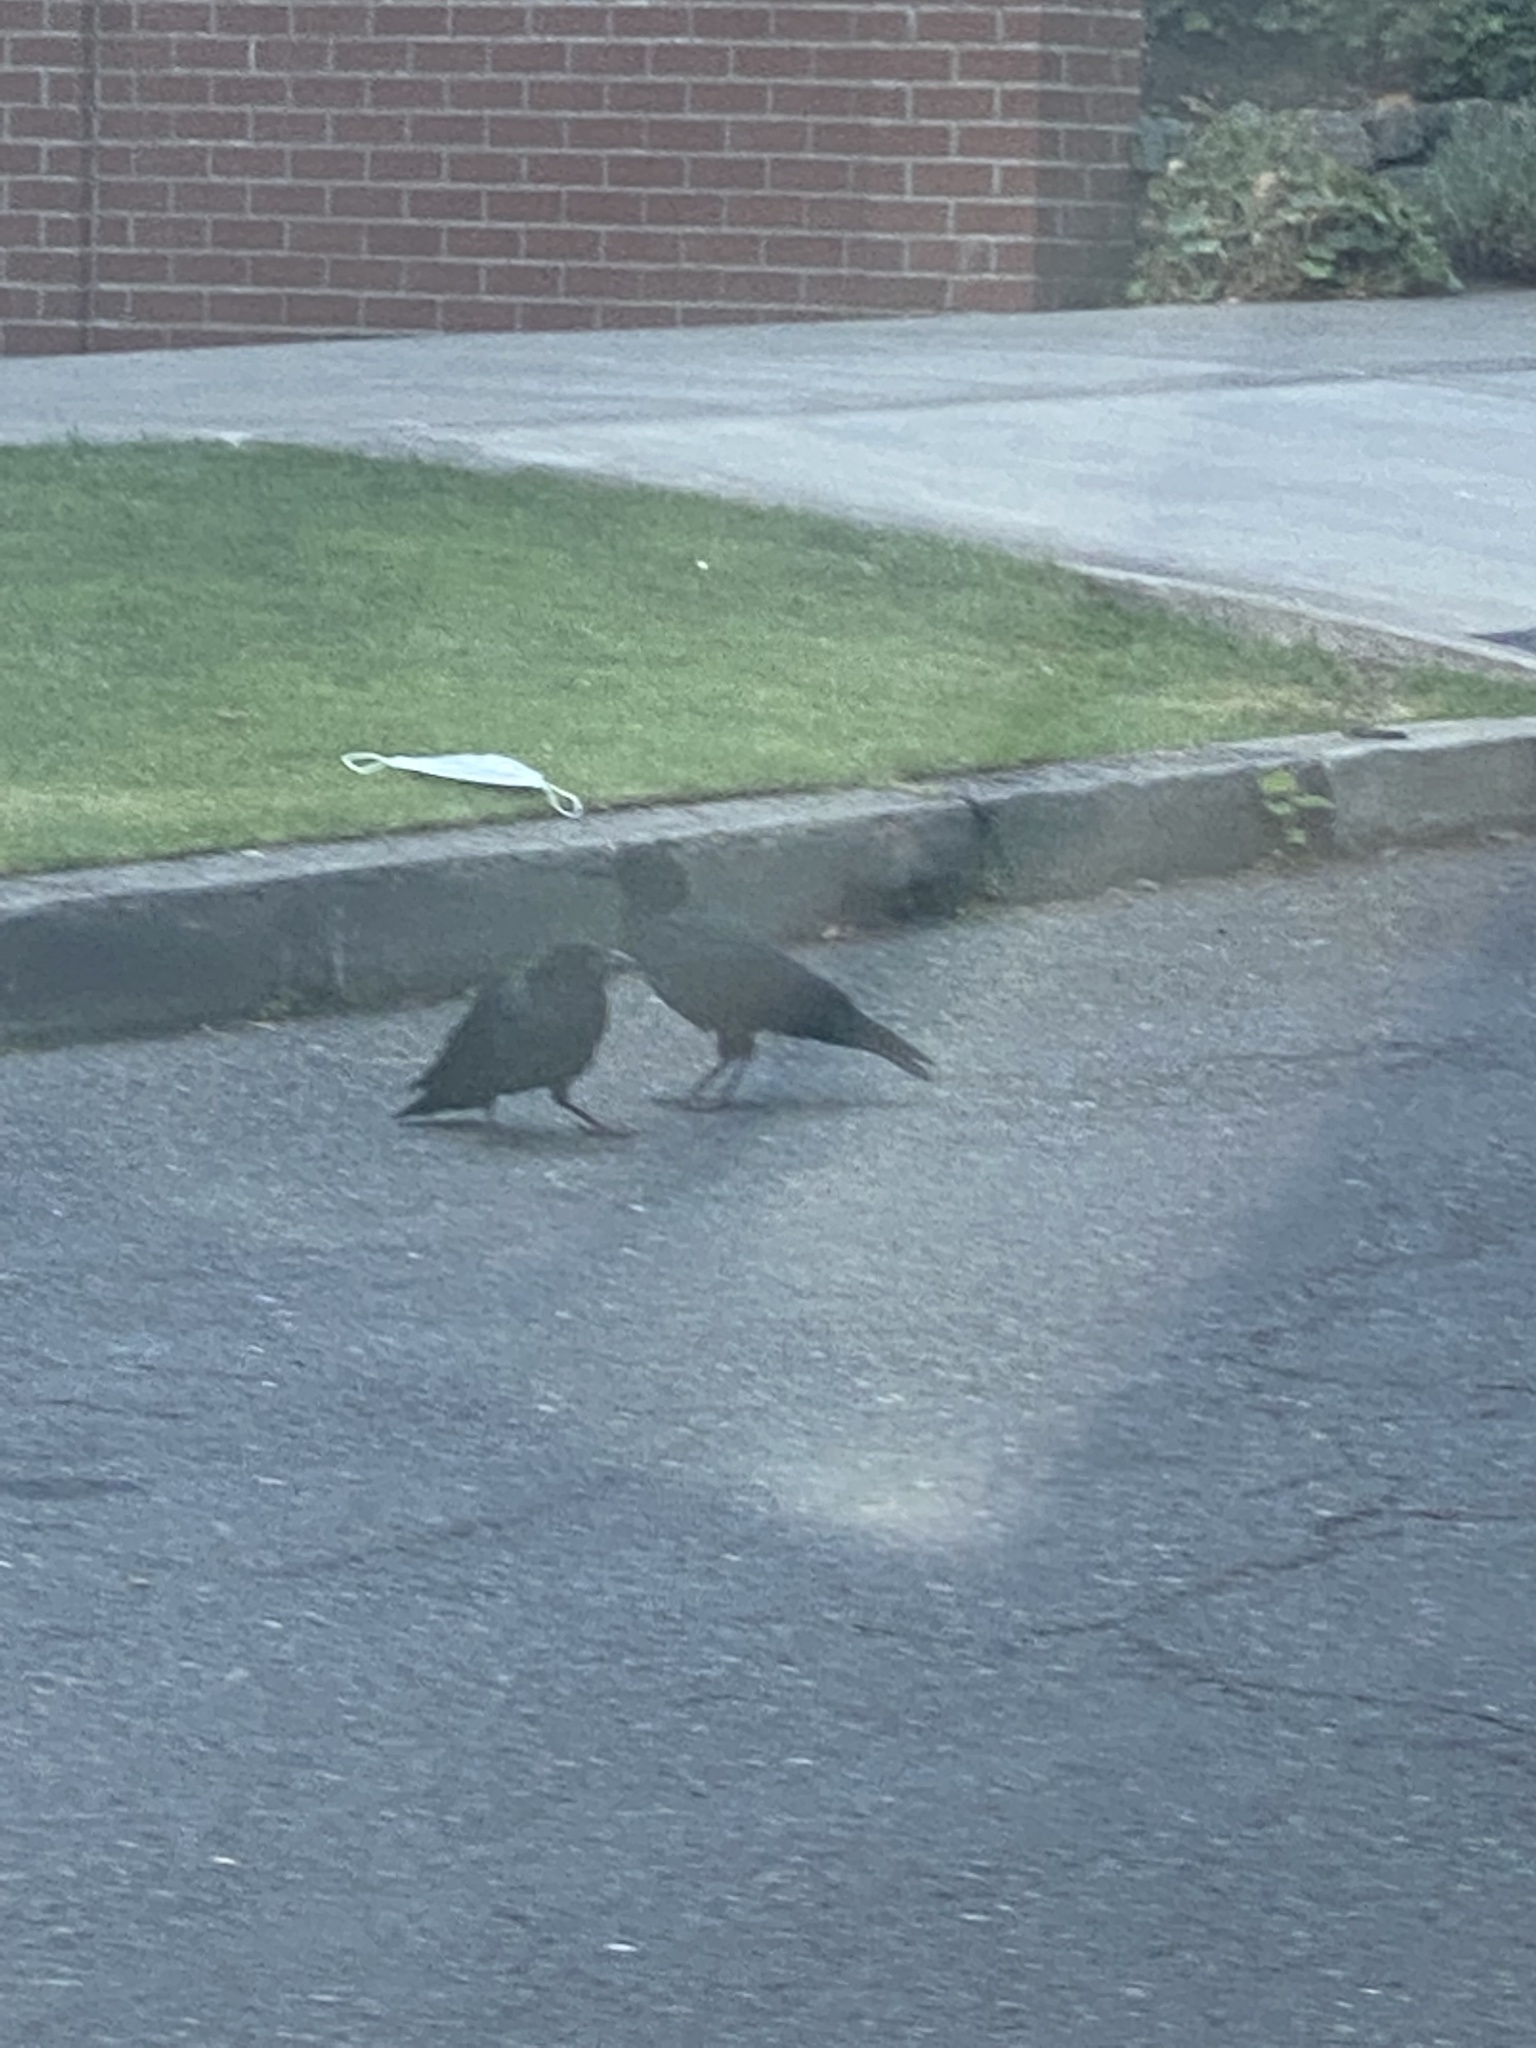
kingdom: Animalia
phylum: Chordata
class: Aves
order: Passeriformes
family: Corvidae
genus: Corvus
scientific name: Corvus brachyrhynchos
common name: American crow
